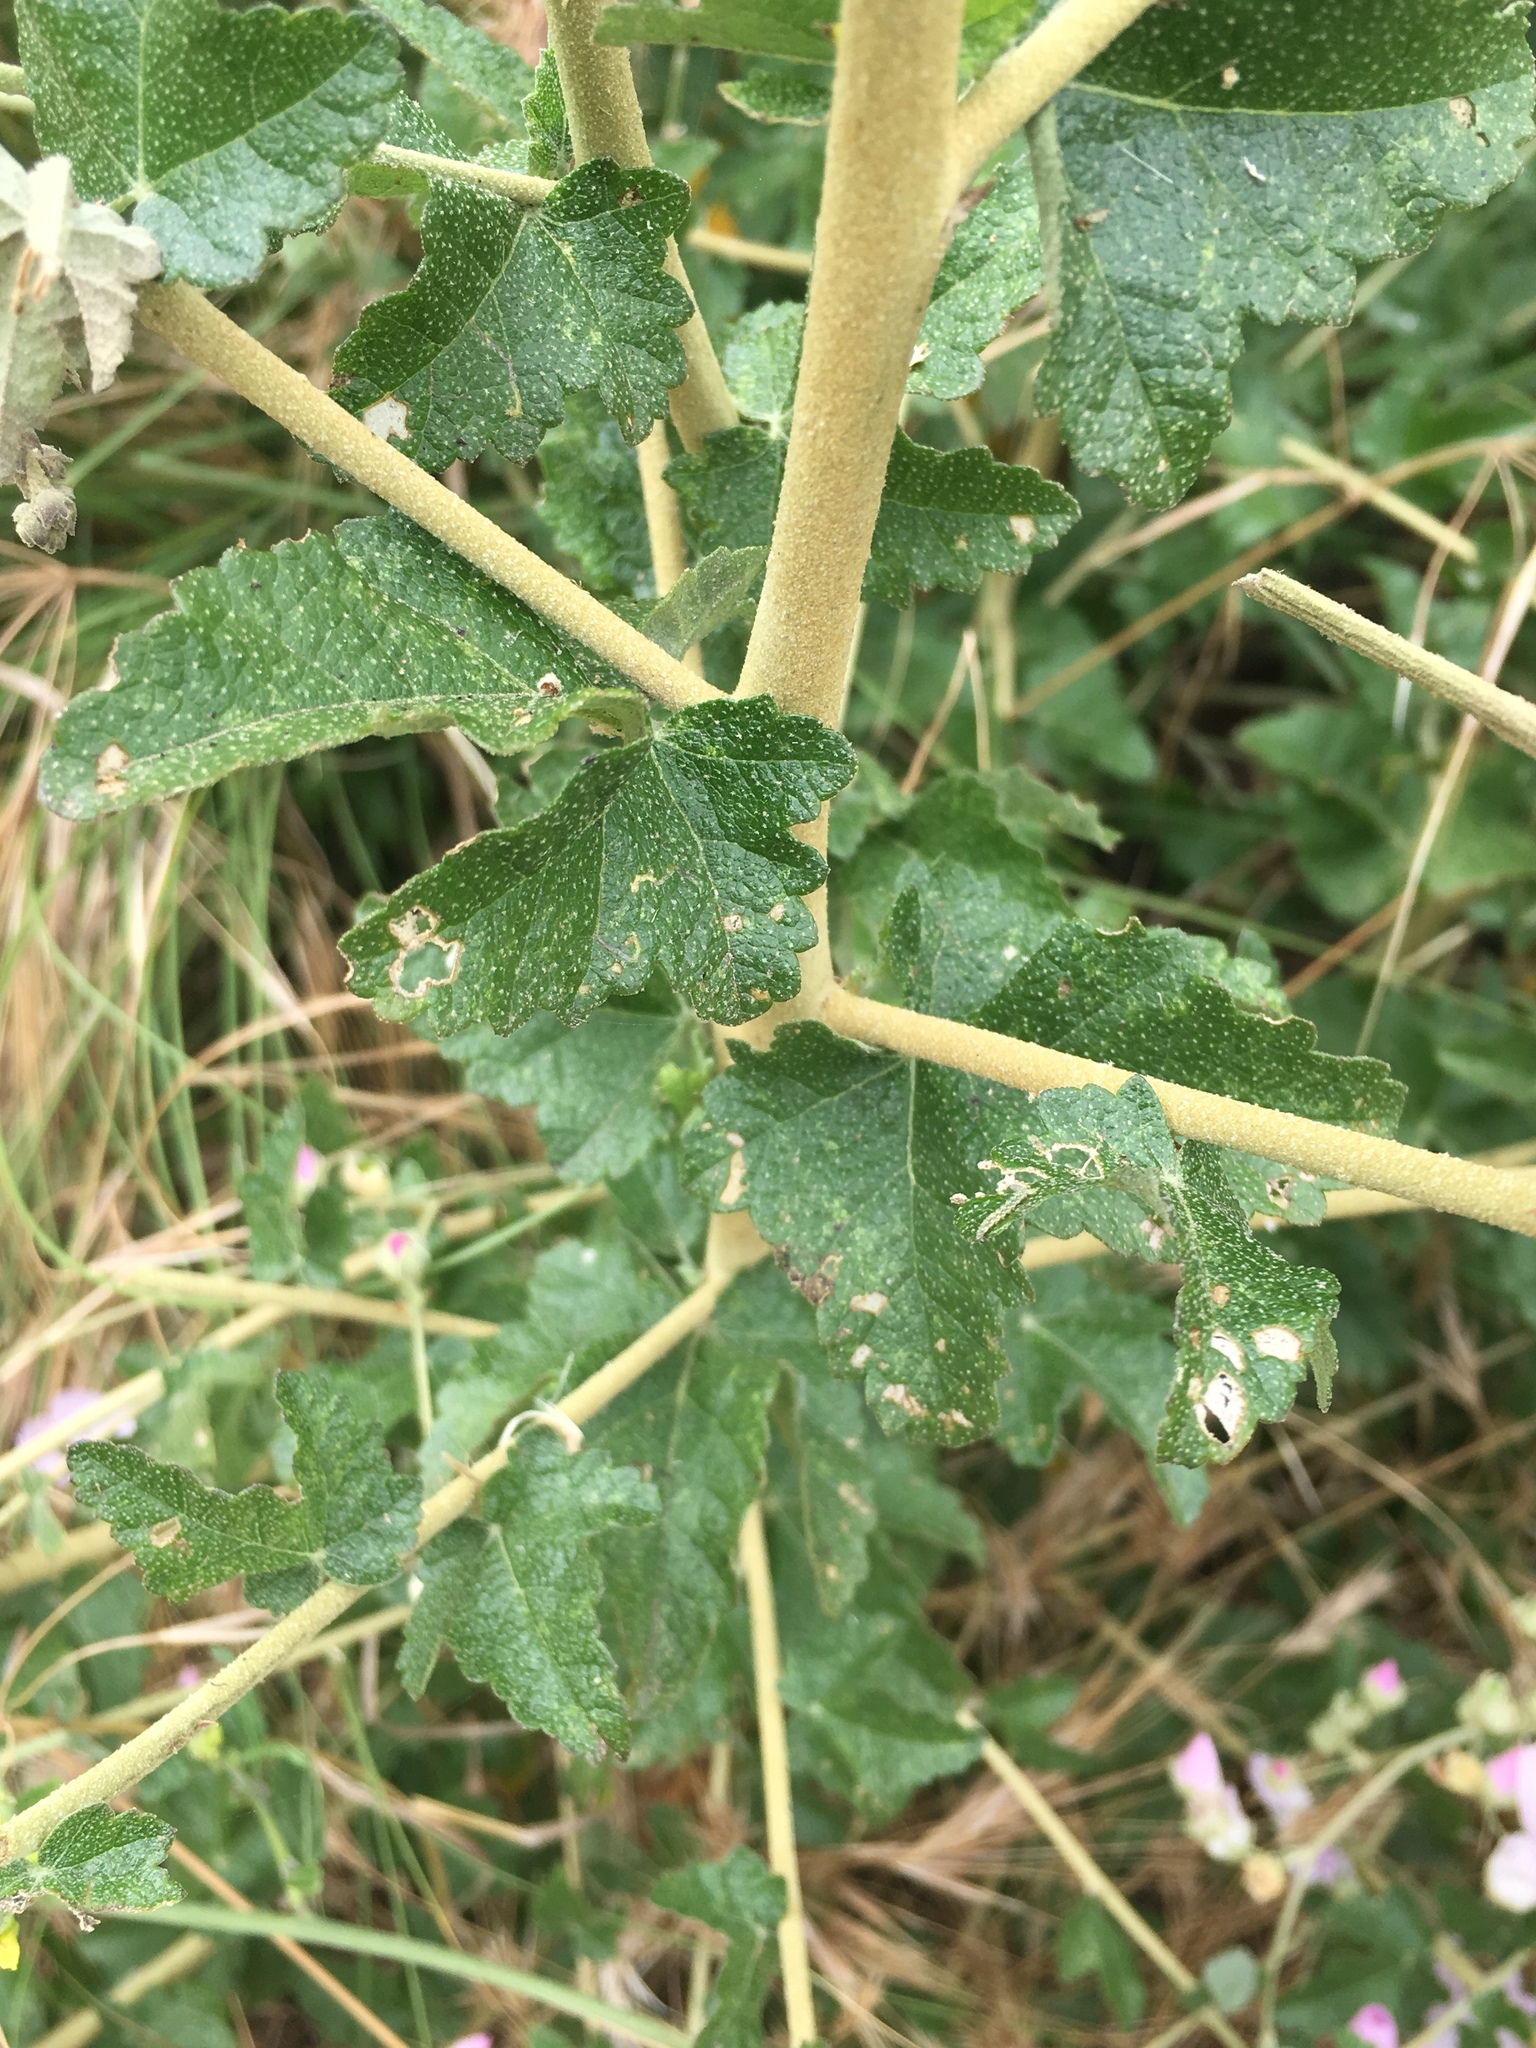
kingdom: Plantae
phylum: Tracheophyta
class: Magnoliopsida
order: Malvales
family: Malvaceae
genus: Malacothamnus
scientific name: Malacothamnus fasciculatus
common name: Sant cruz island bush-mallow
